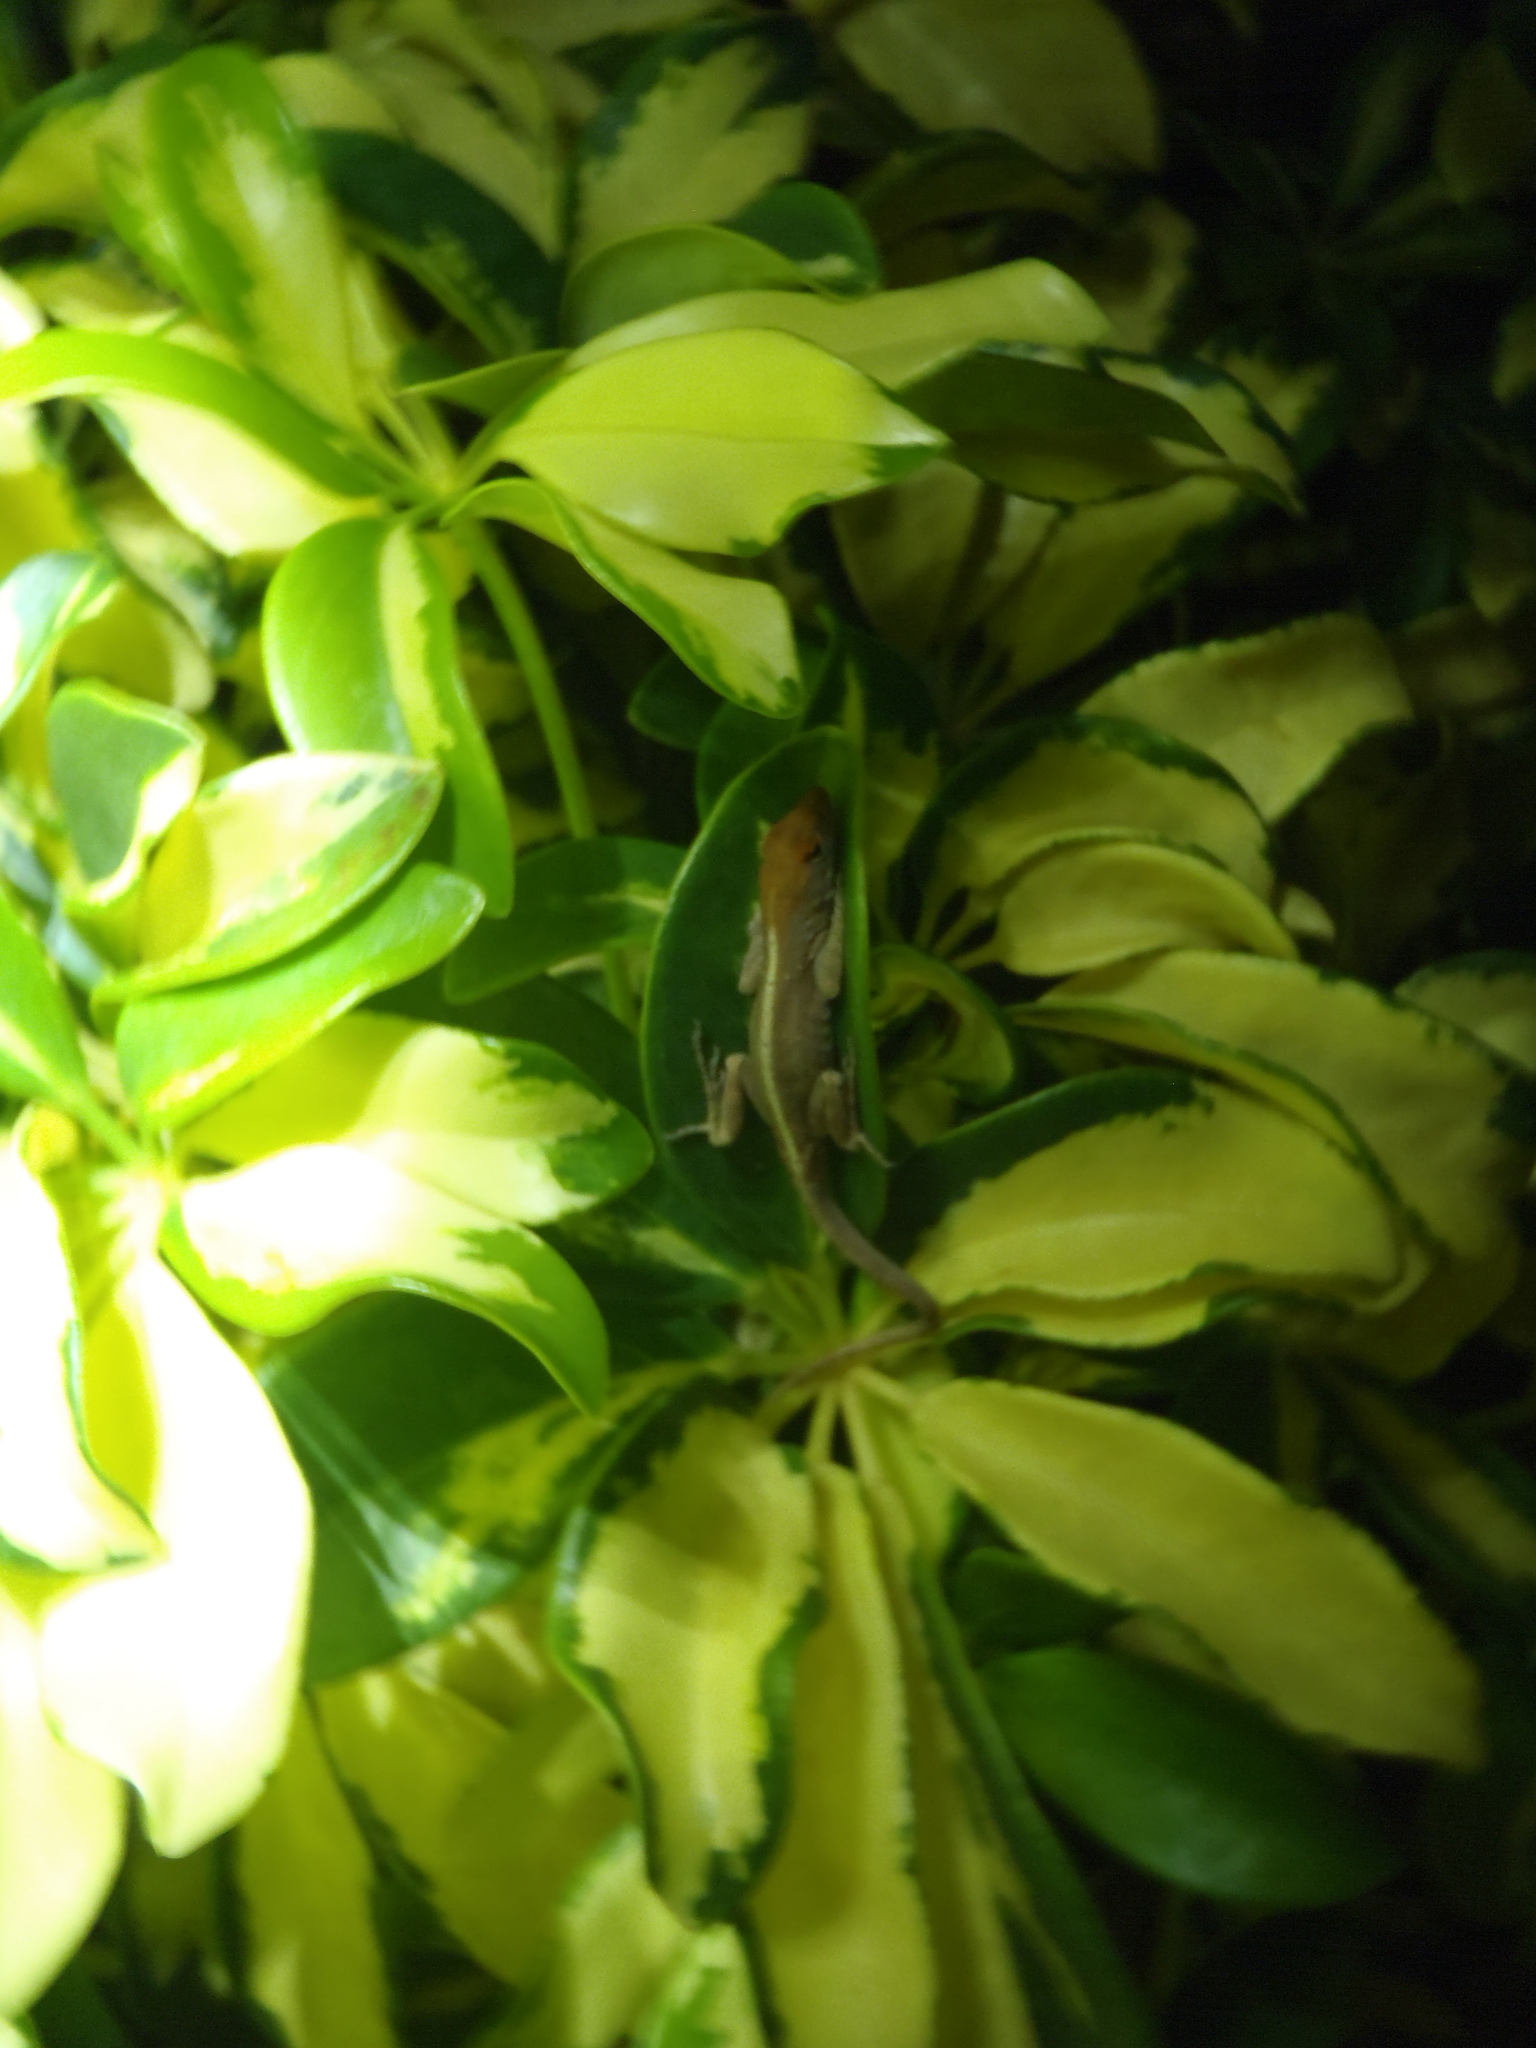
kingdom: Animalia
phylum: Chordata
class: Squamata
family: Dactyloidae
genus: Anolis
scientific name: Anolis sagrei
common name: Brown anole
